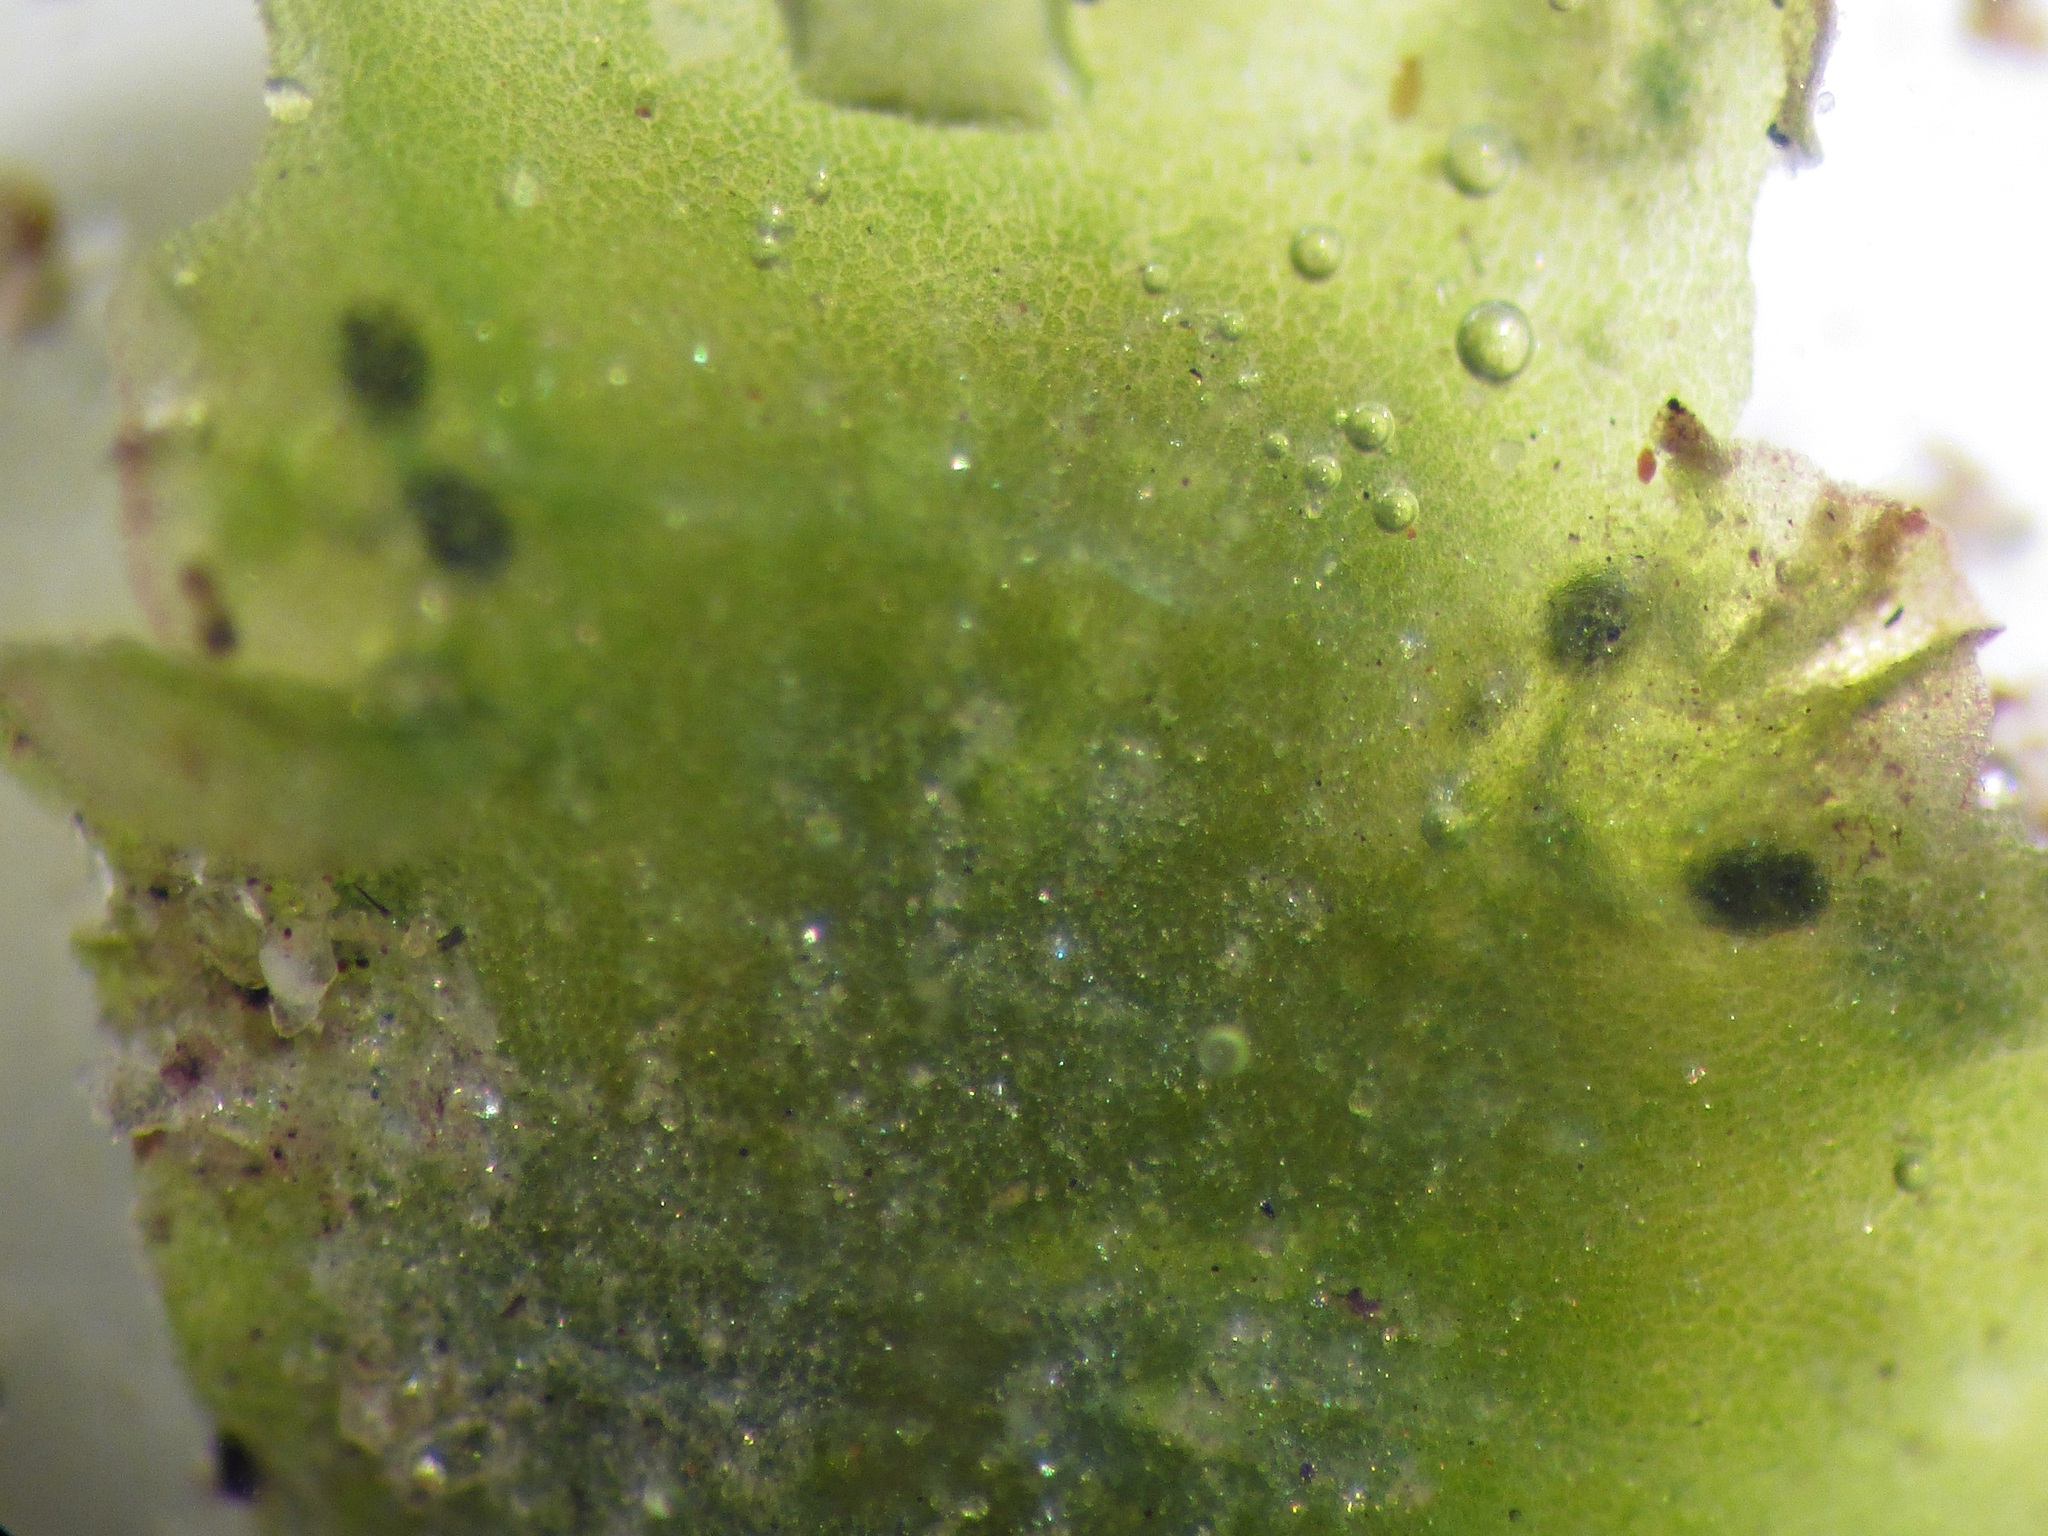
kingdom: Plantae
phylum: Marchantiophyta
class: Marchantiopsida
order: Blasiales
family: Blasiaceae
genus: Blasia
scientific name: Blasia pusilla
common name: Common kettlewort
